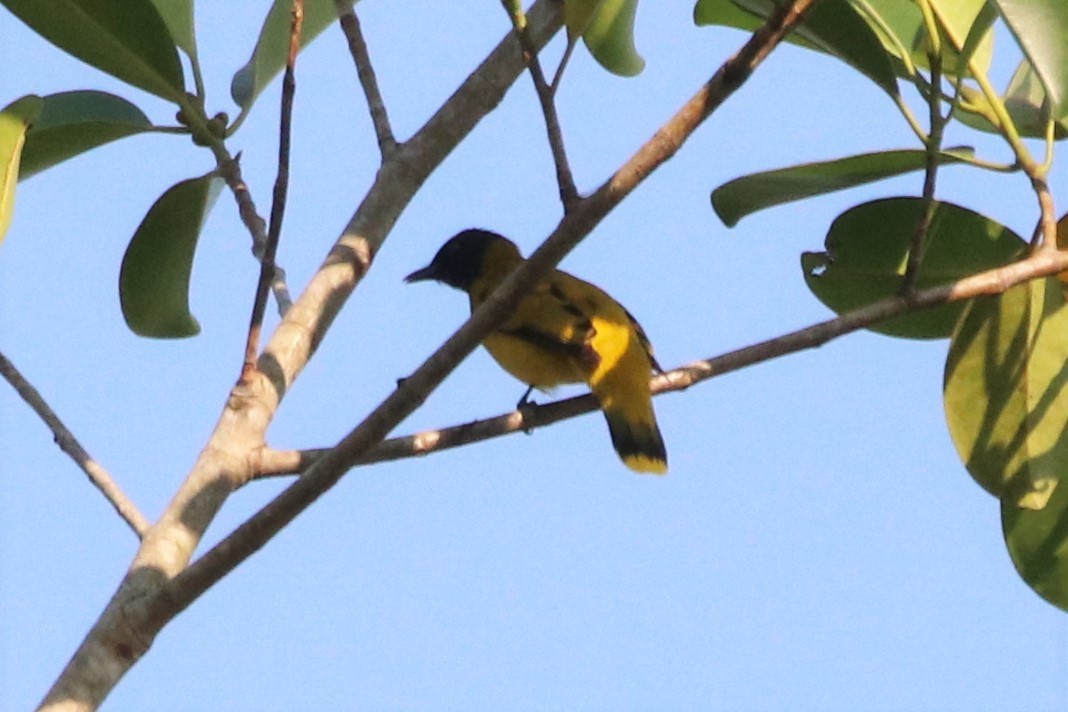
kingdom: Animalia
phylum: Chordata
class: Aves
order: Passeriformes
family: Pycnonotidae
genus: Microtarsus
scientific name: Microtarsus
